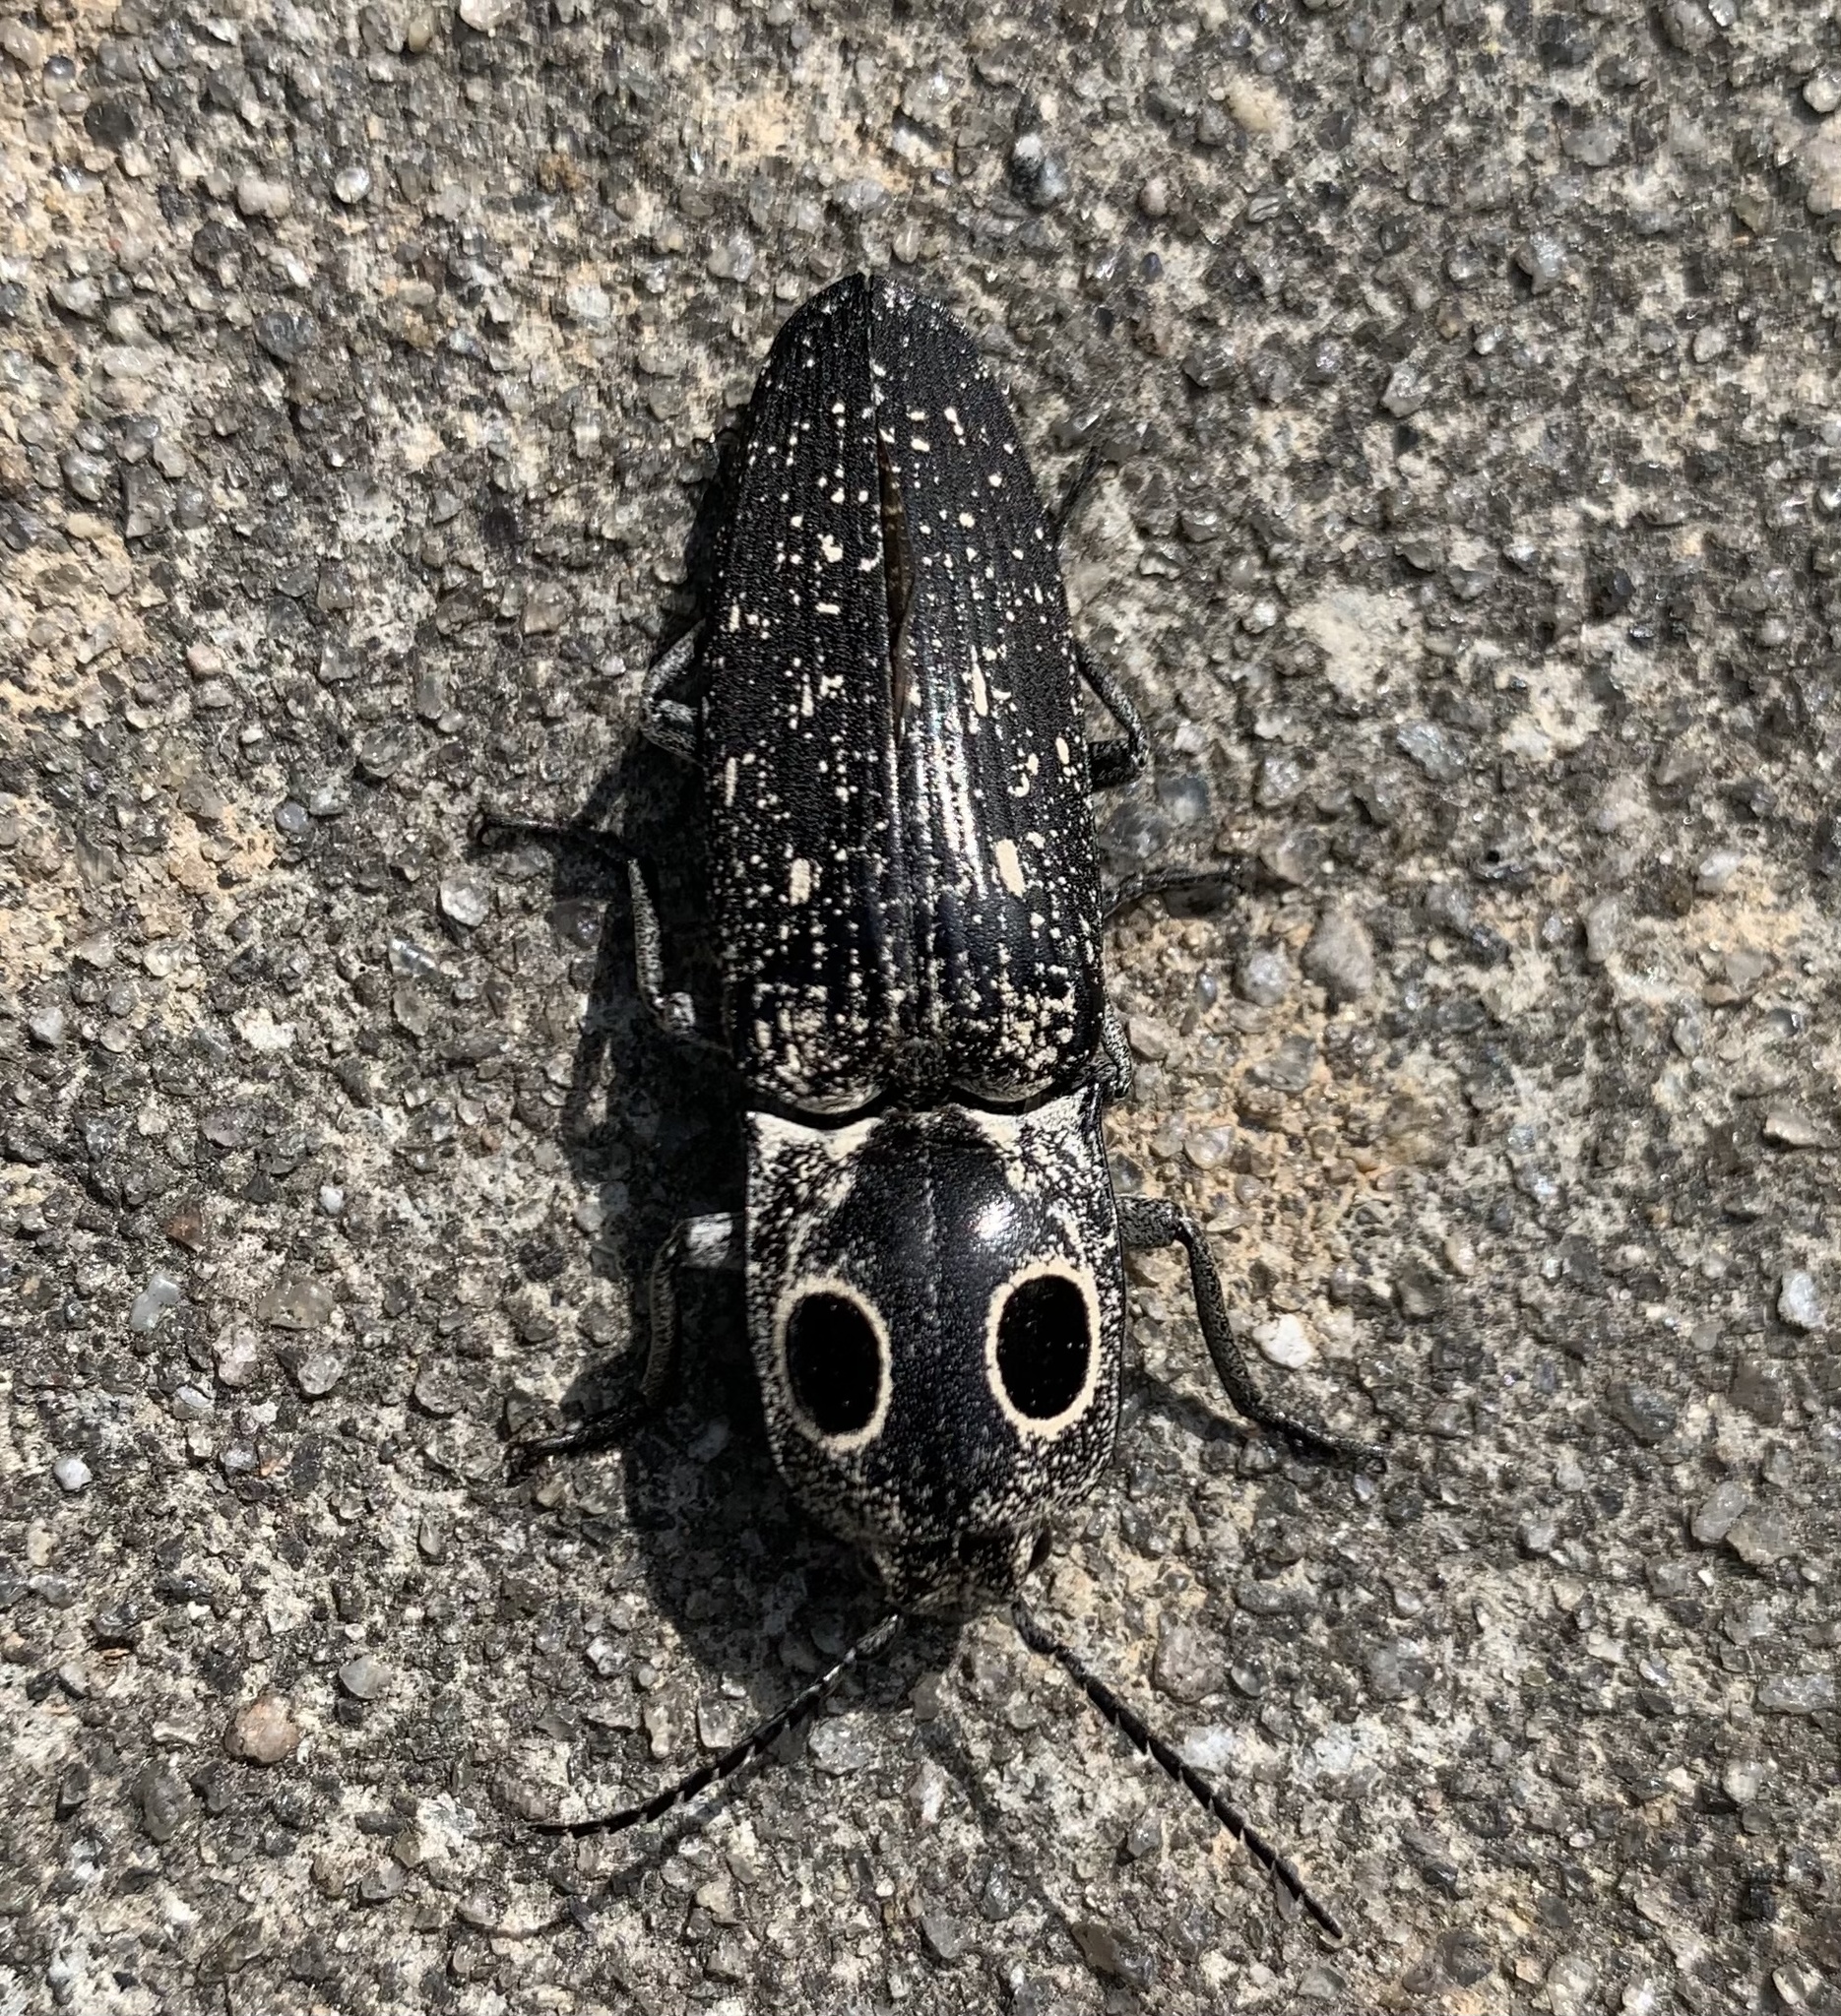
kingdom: Animalia
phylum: Arthropoda
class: Insecta
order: Coleoptera
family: Elateridae
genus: Alaus
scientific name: Alaus oculatus
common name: Eastern eyed click beetle
